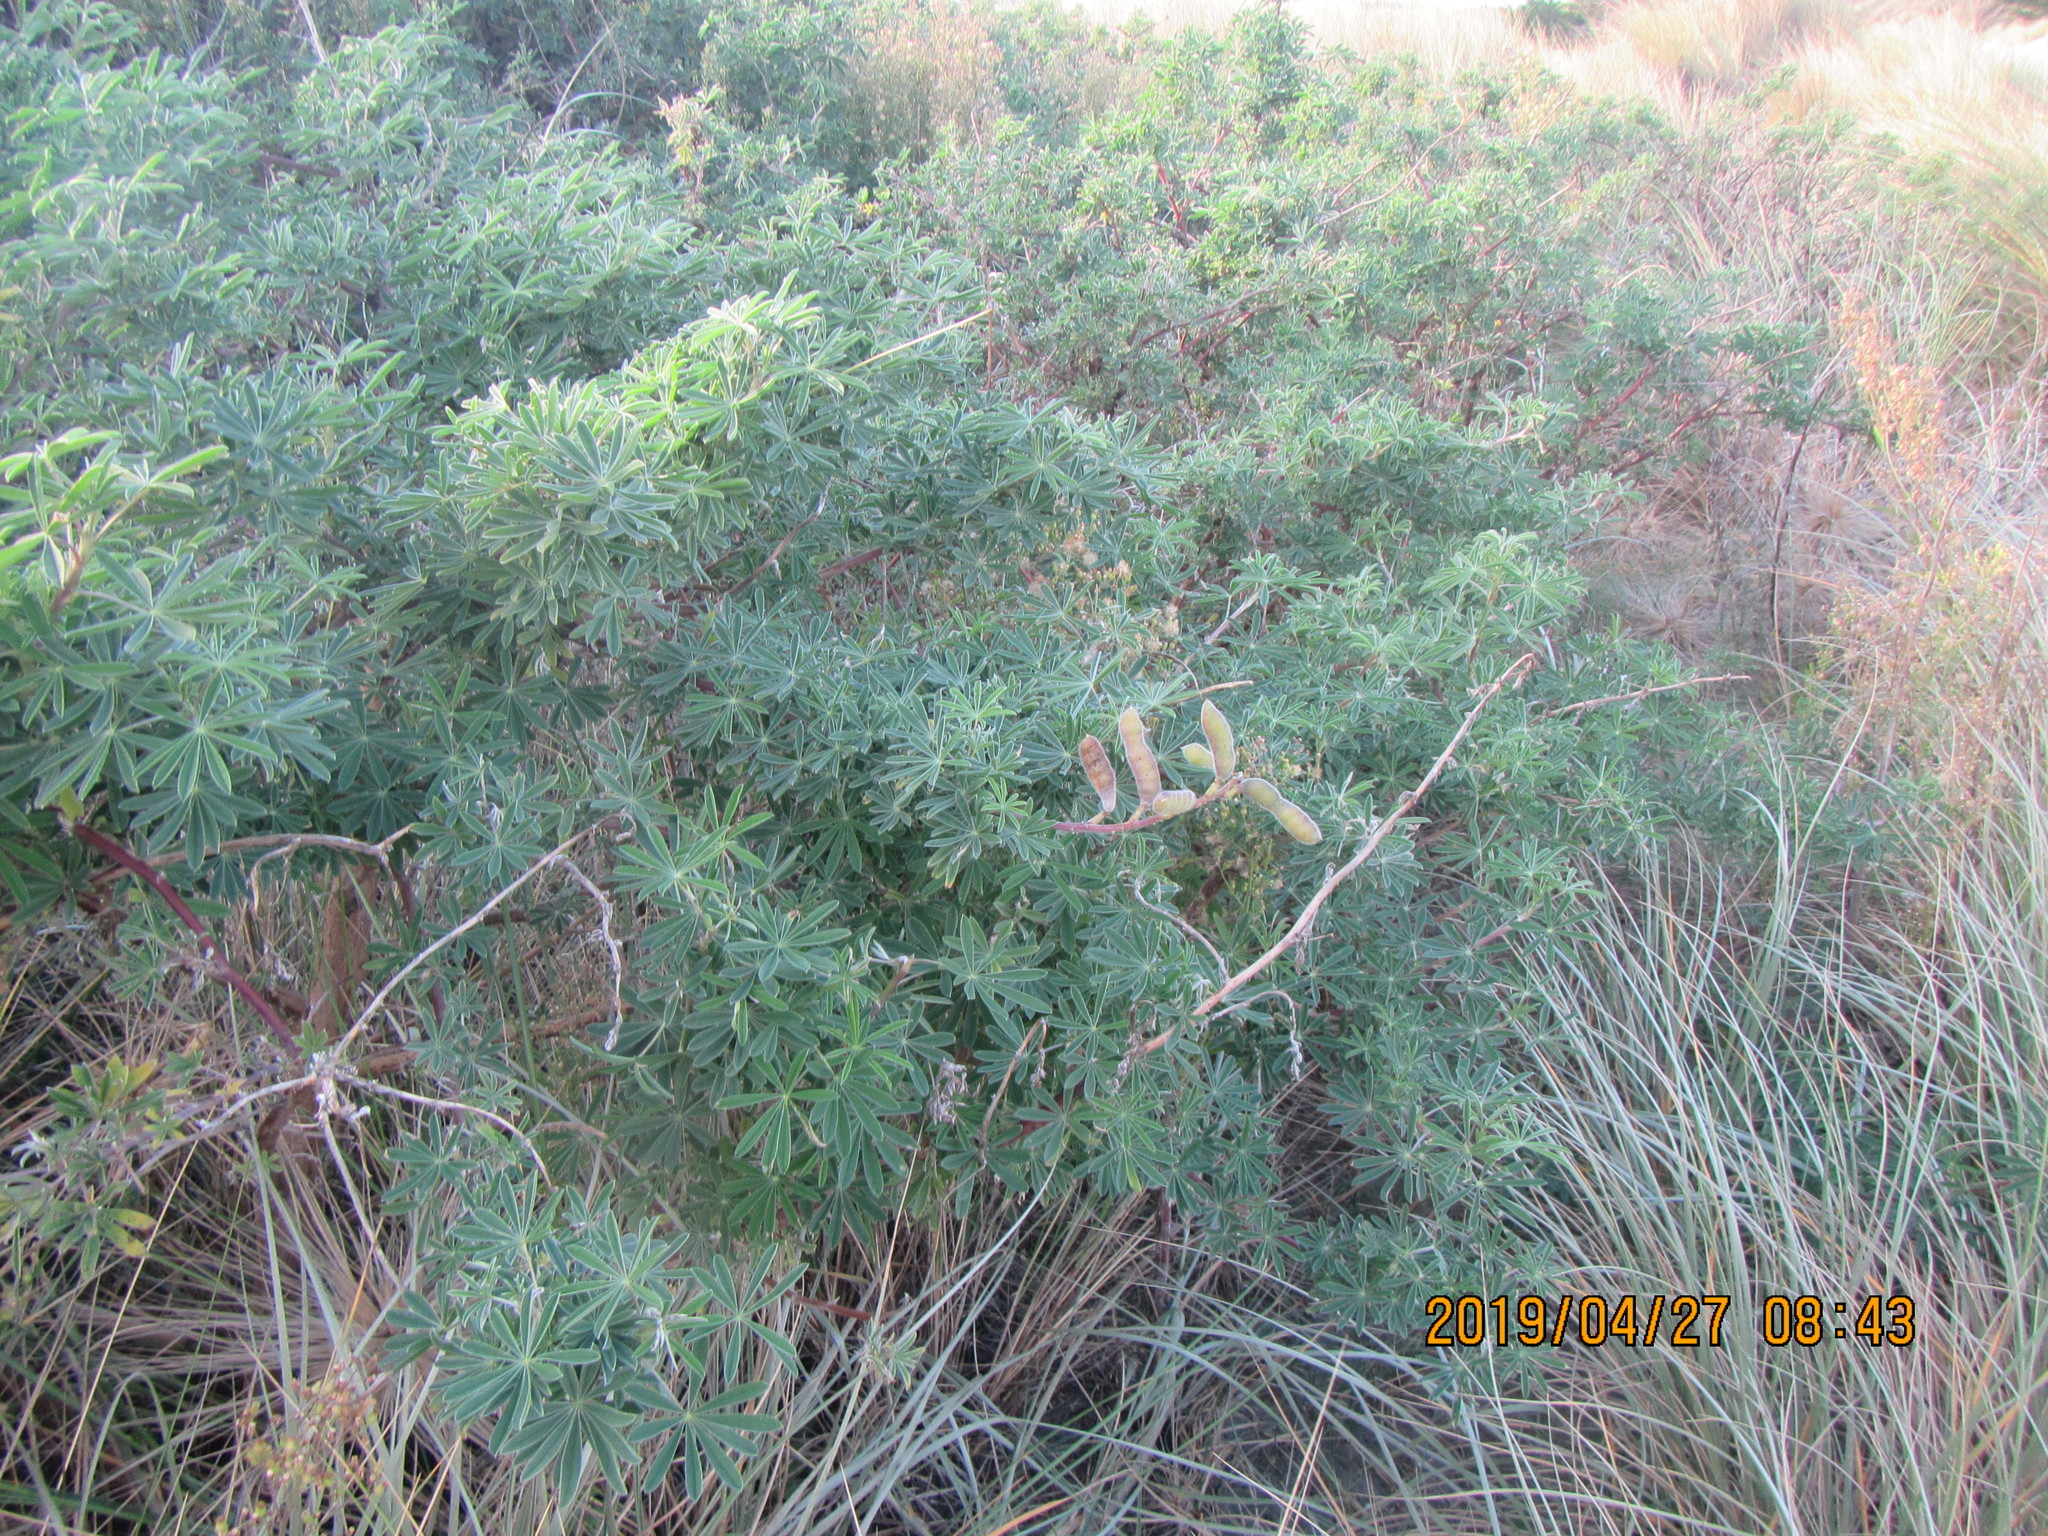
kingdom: Plantae
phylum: Tracheophyta
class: Magnoliopsida
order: Fabales
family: Fabaceae
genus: Lupinus
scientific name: Lupinus arboreus
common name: Yellow bush lupine
